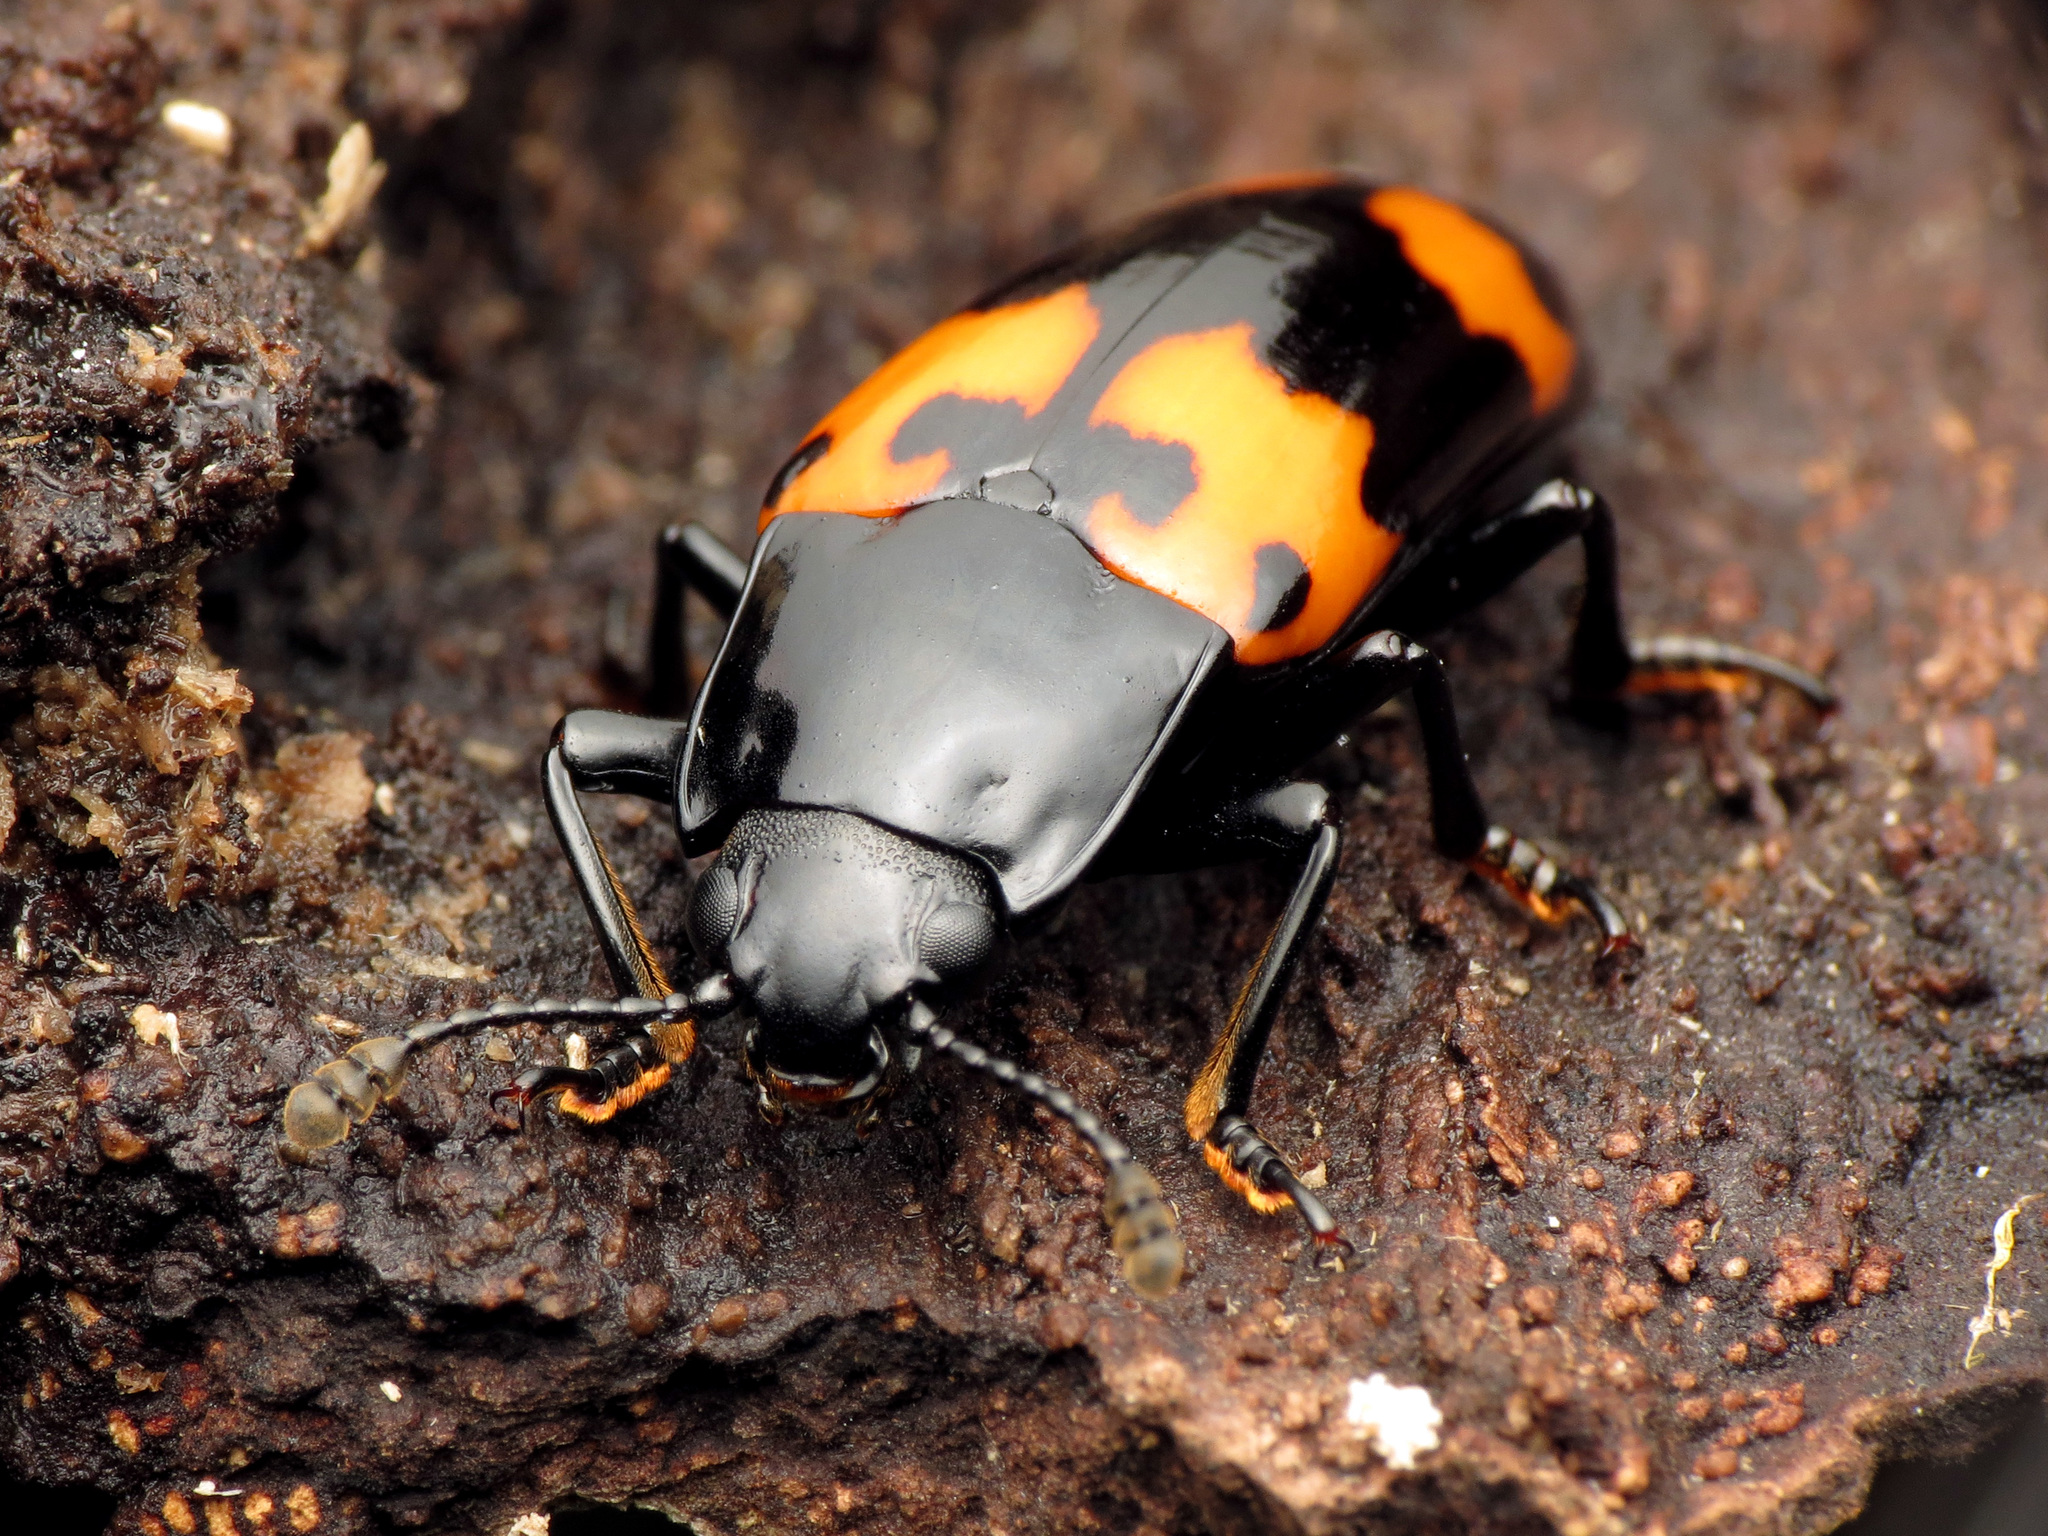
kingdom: Animalia
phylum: Arthropoda
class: Insecta
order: Coleoptera
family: Erotylidae
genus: Megalodacne
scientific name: Megalodacne heros
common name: Pleasing fungus beetle
